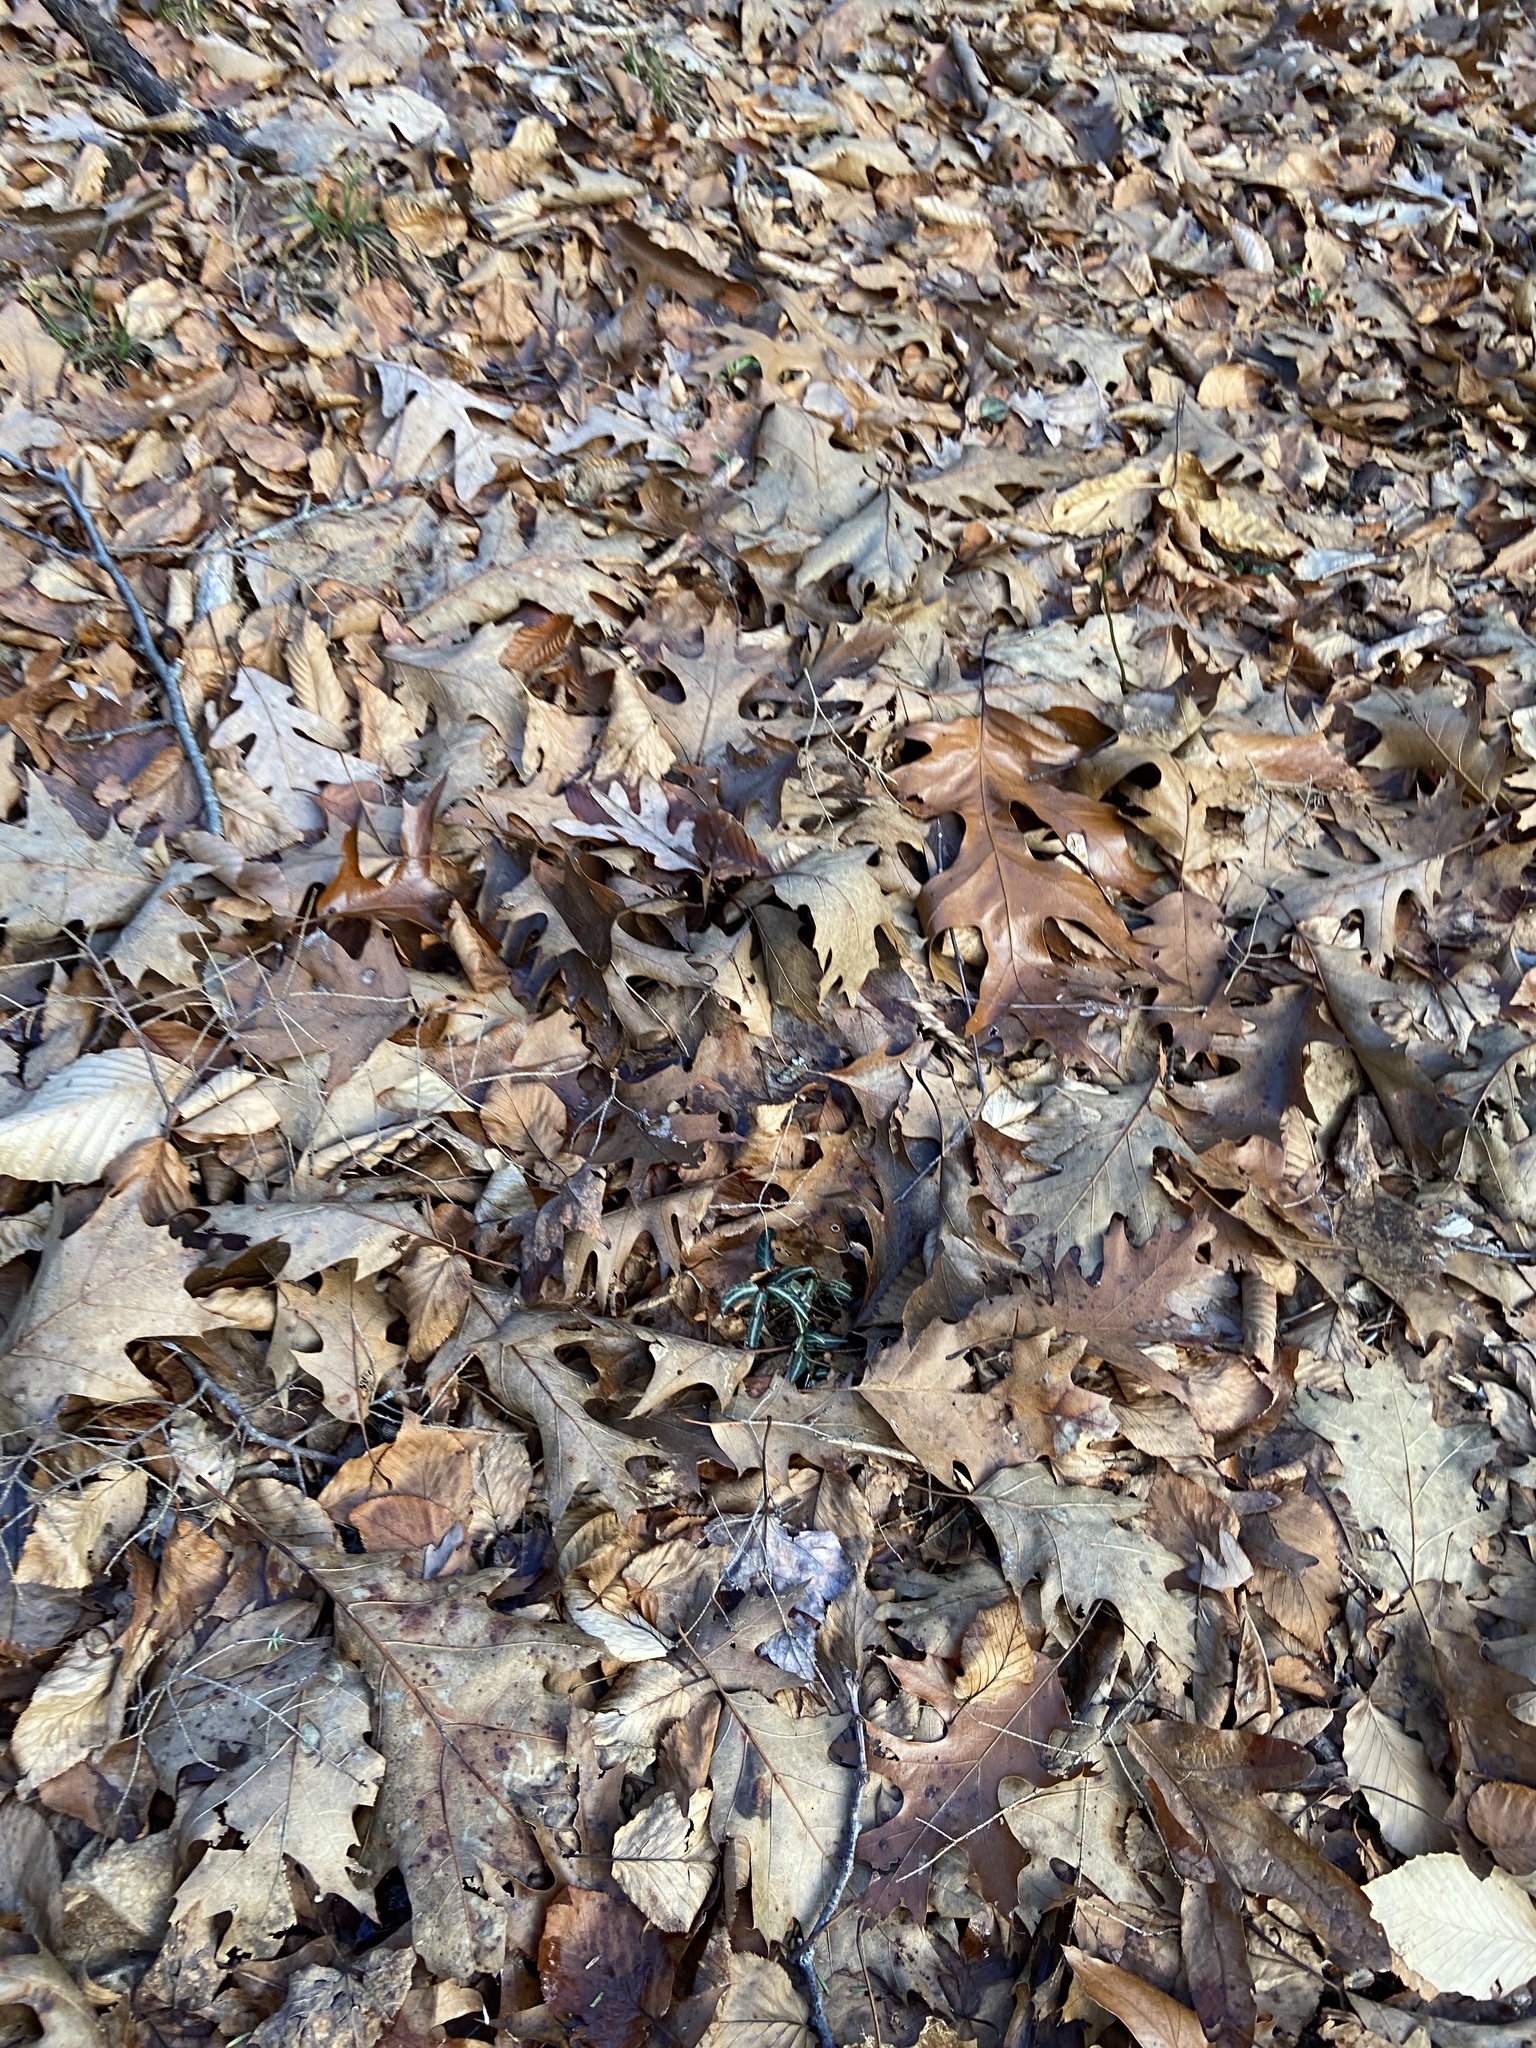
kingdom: Plantae
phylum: Tracheophyta
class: Magnoliopsida
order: Ericales
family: Ericaceae
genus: Chimaphila
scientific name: Chimaphila maculata
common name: Spotted pipsissewa
